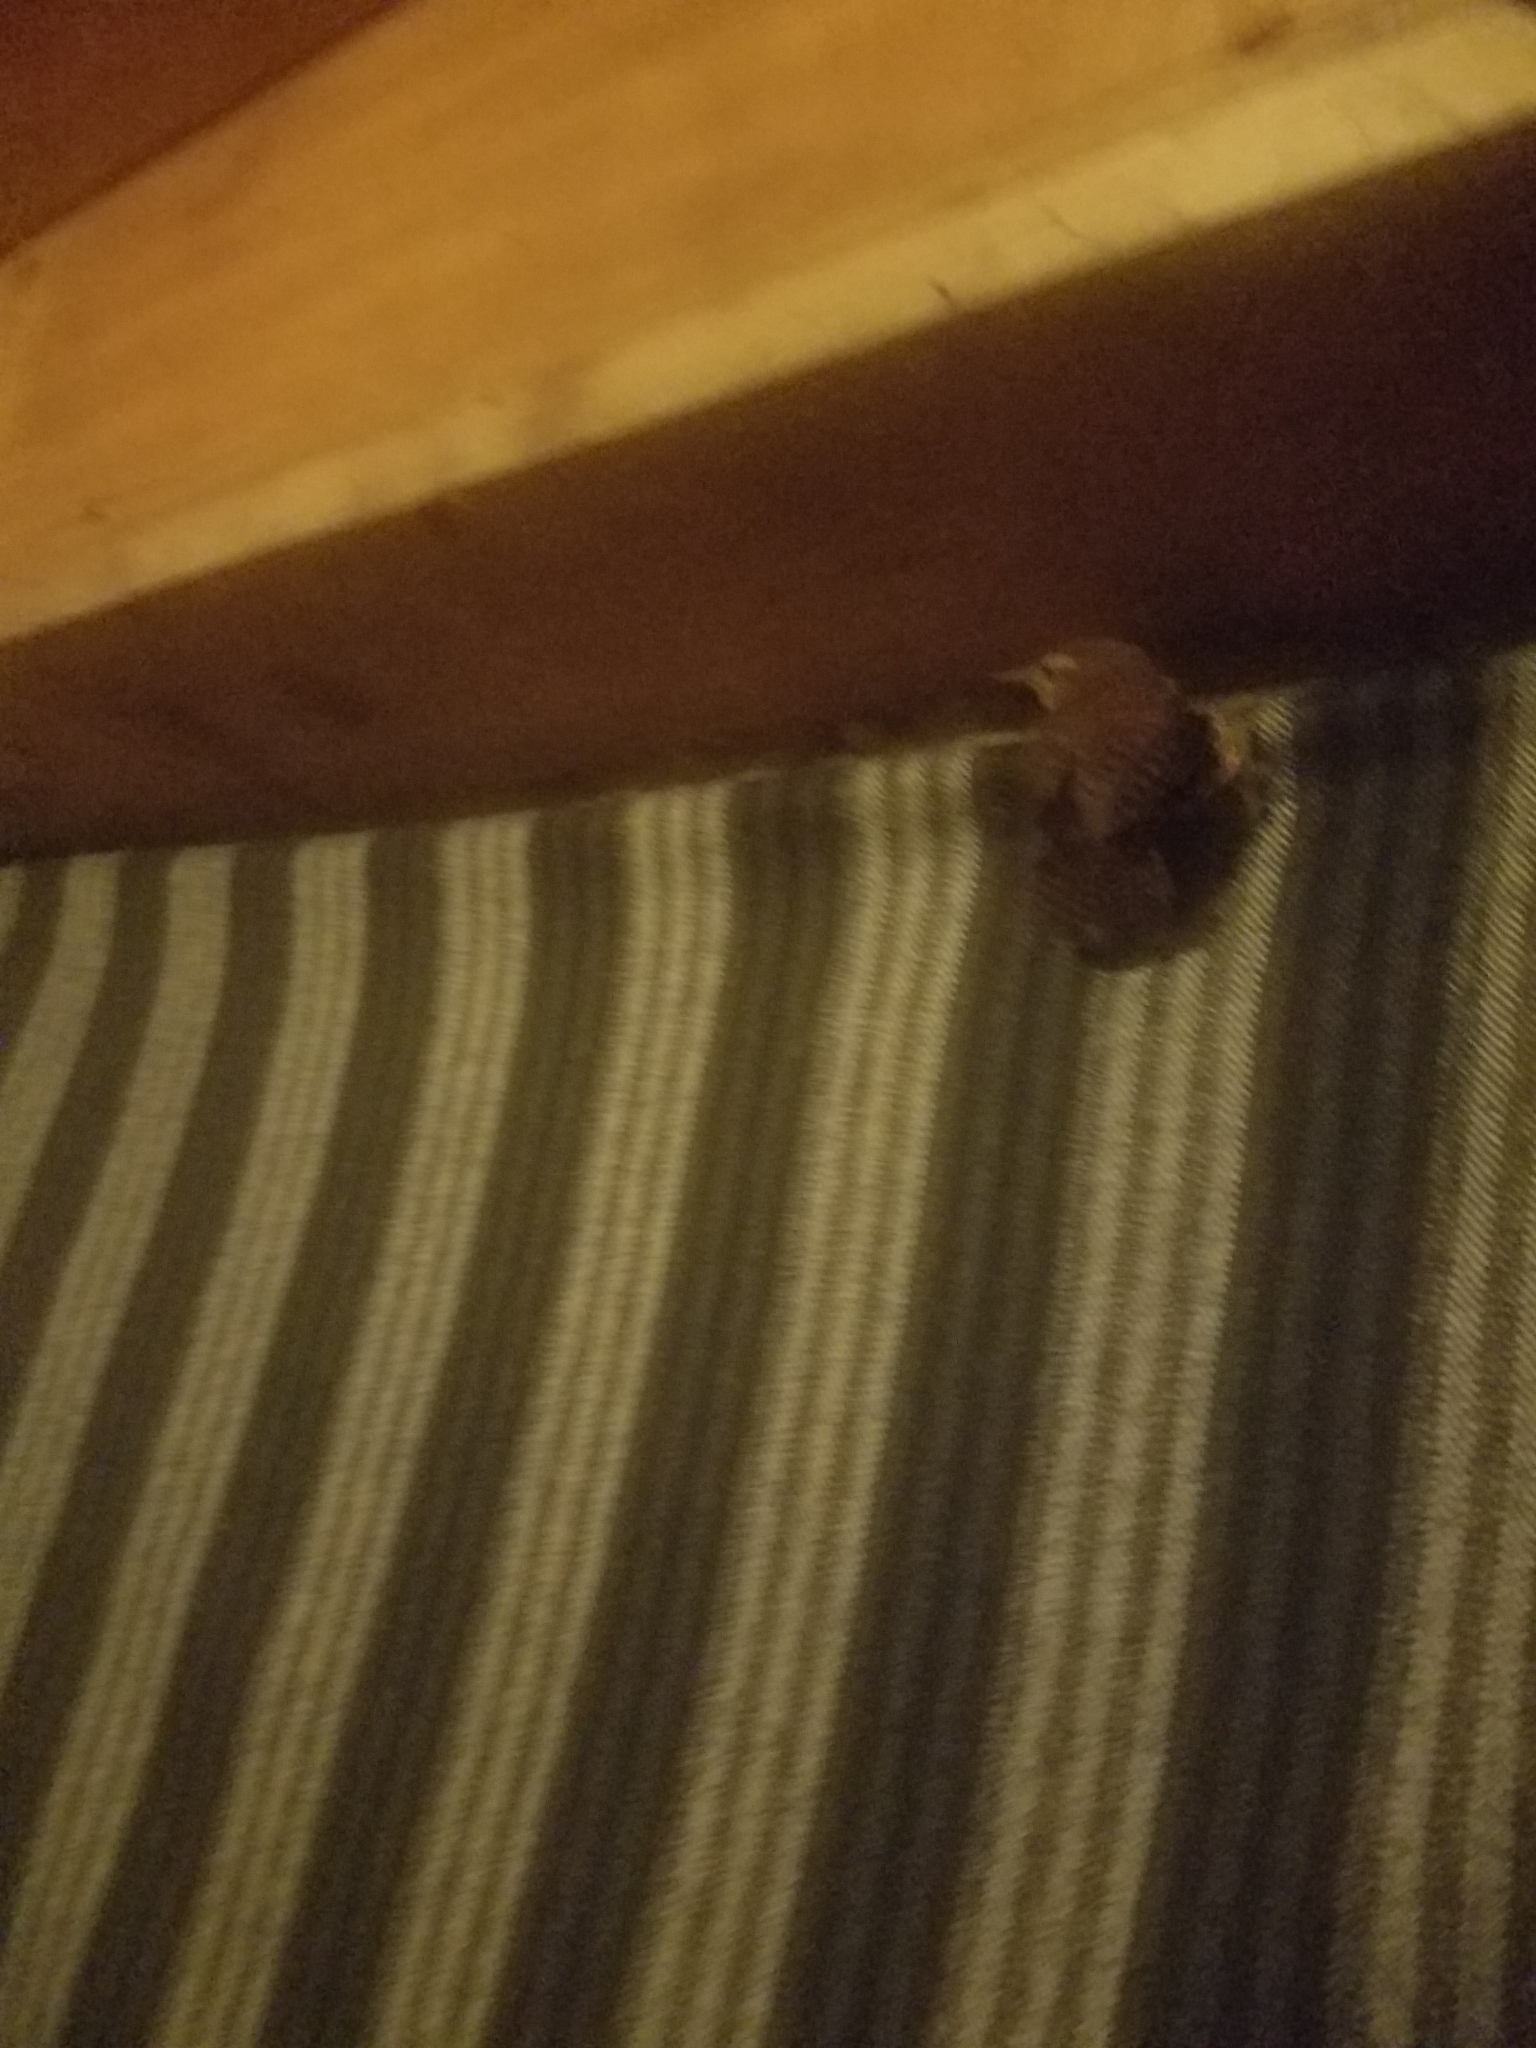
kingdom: Animalia
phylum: Chordata
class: Aves
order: Passeriformes
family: Troglodytidae
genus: Troglodytes
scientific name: Troglodytes pacificus
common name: Pacific wren
